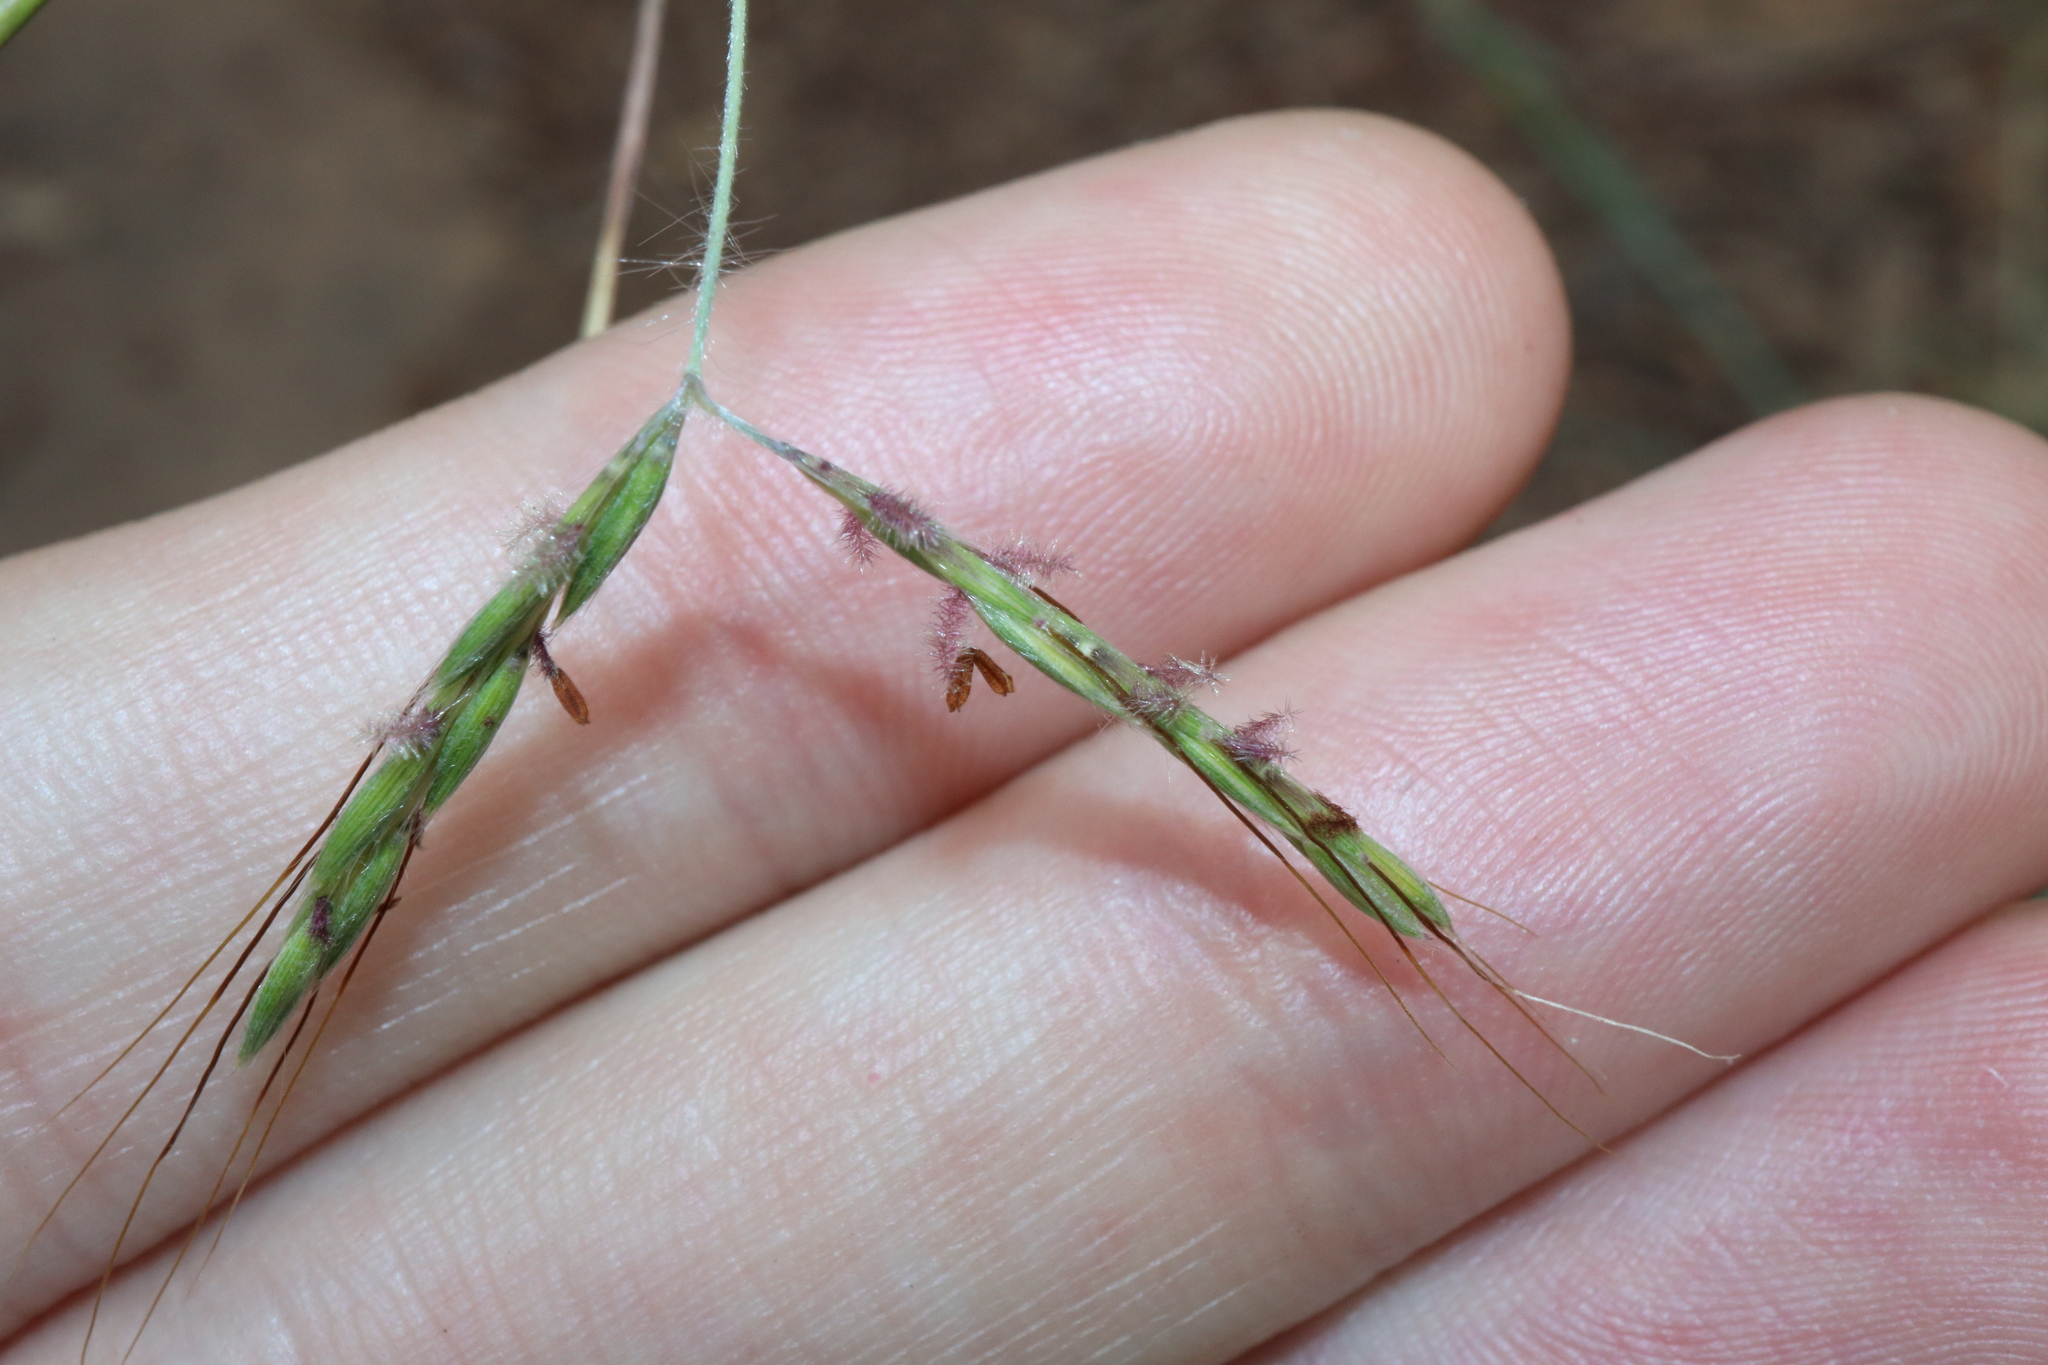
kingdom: Plantae
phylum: Tracheophyta
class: Liliopsida
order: Poales
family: Poaceae
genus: Hyparrhenia
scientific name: Hyparrhenia hirta
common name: Thatching grass
